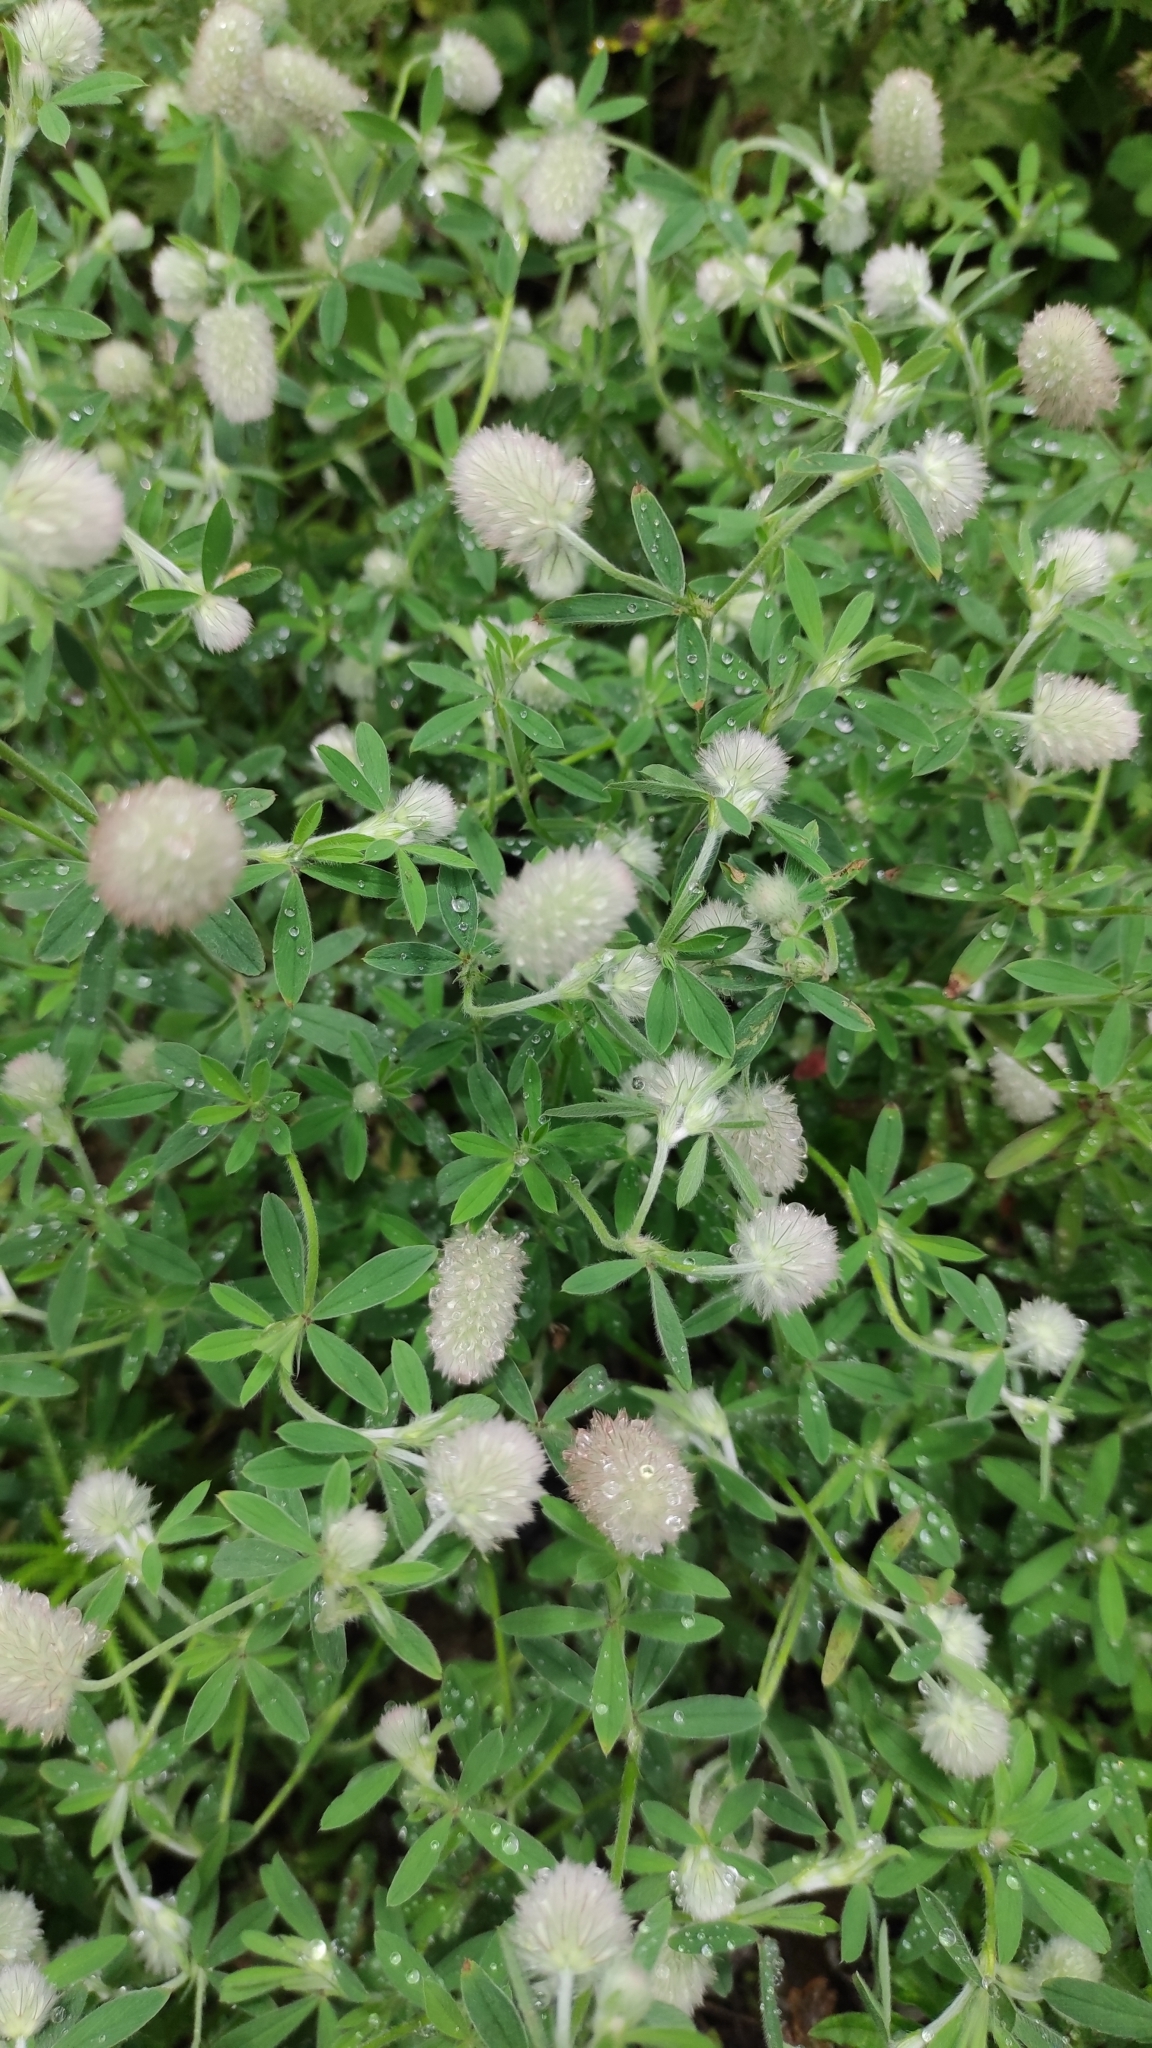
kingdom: Plantae
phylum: Tracheophyta
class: Magnoliopsida
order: Fabales
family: Fabaceae
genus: Trifolium
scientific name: Trifolium arvense
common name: Hare's-foot clover
